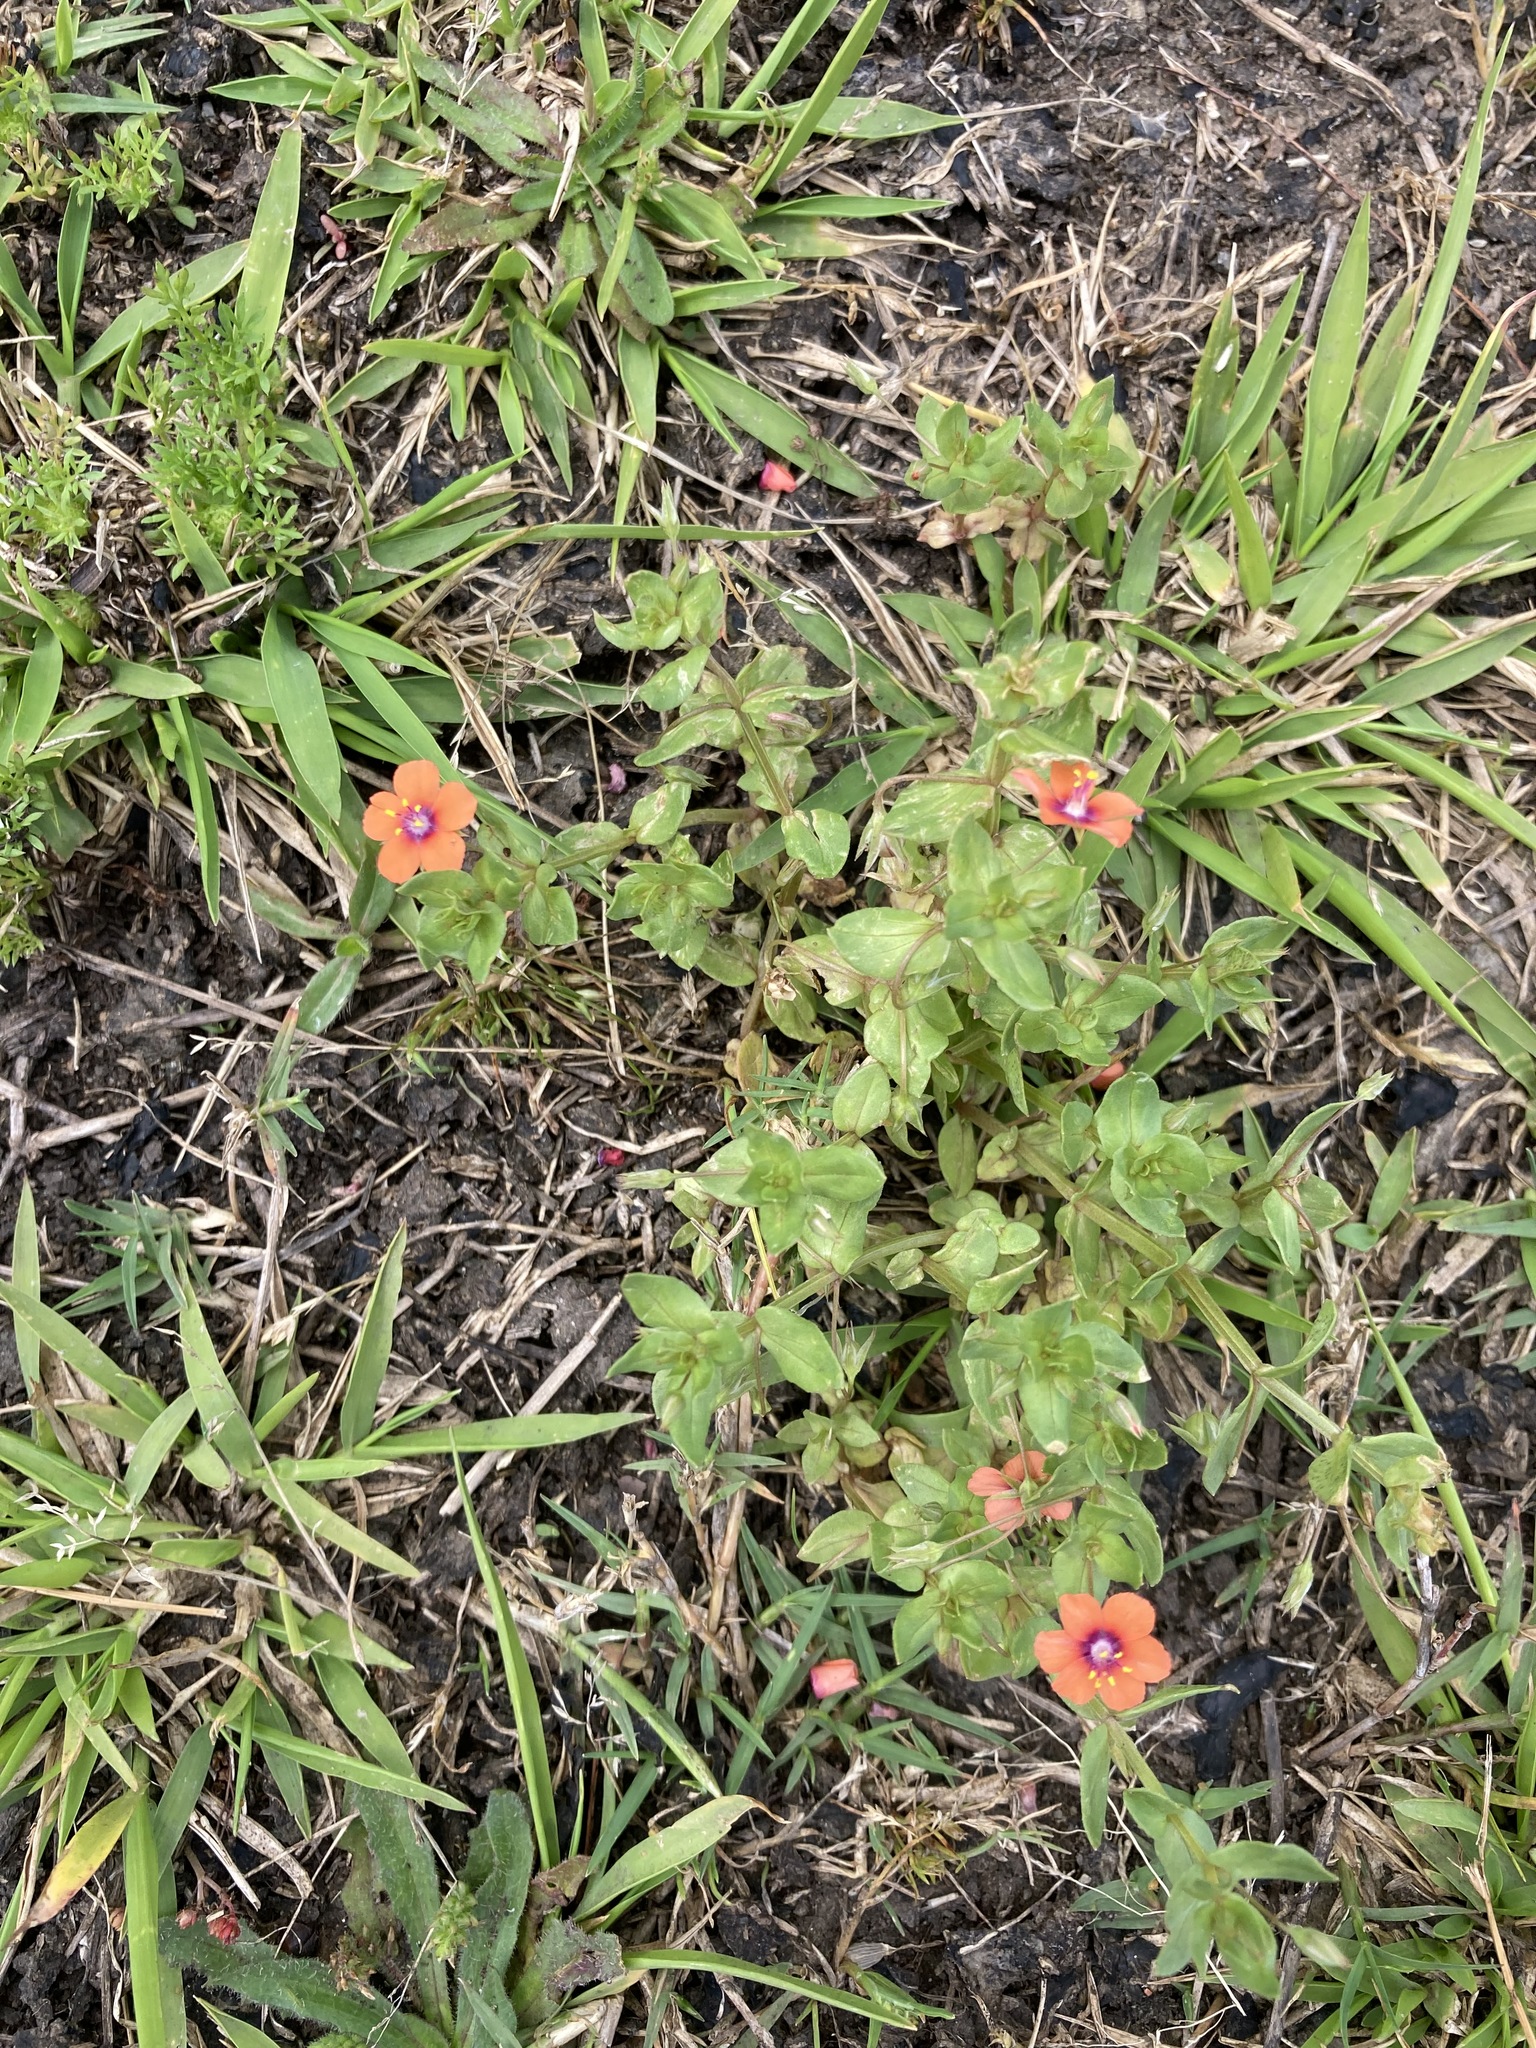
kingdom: Plantae
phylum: Tracheophyta
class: Magnoliopsida
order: Ericales
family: Primulaceae
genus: Lysimachia
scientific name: Lysimachia arvensis
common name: Scarlet pimpernel
